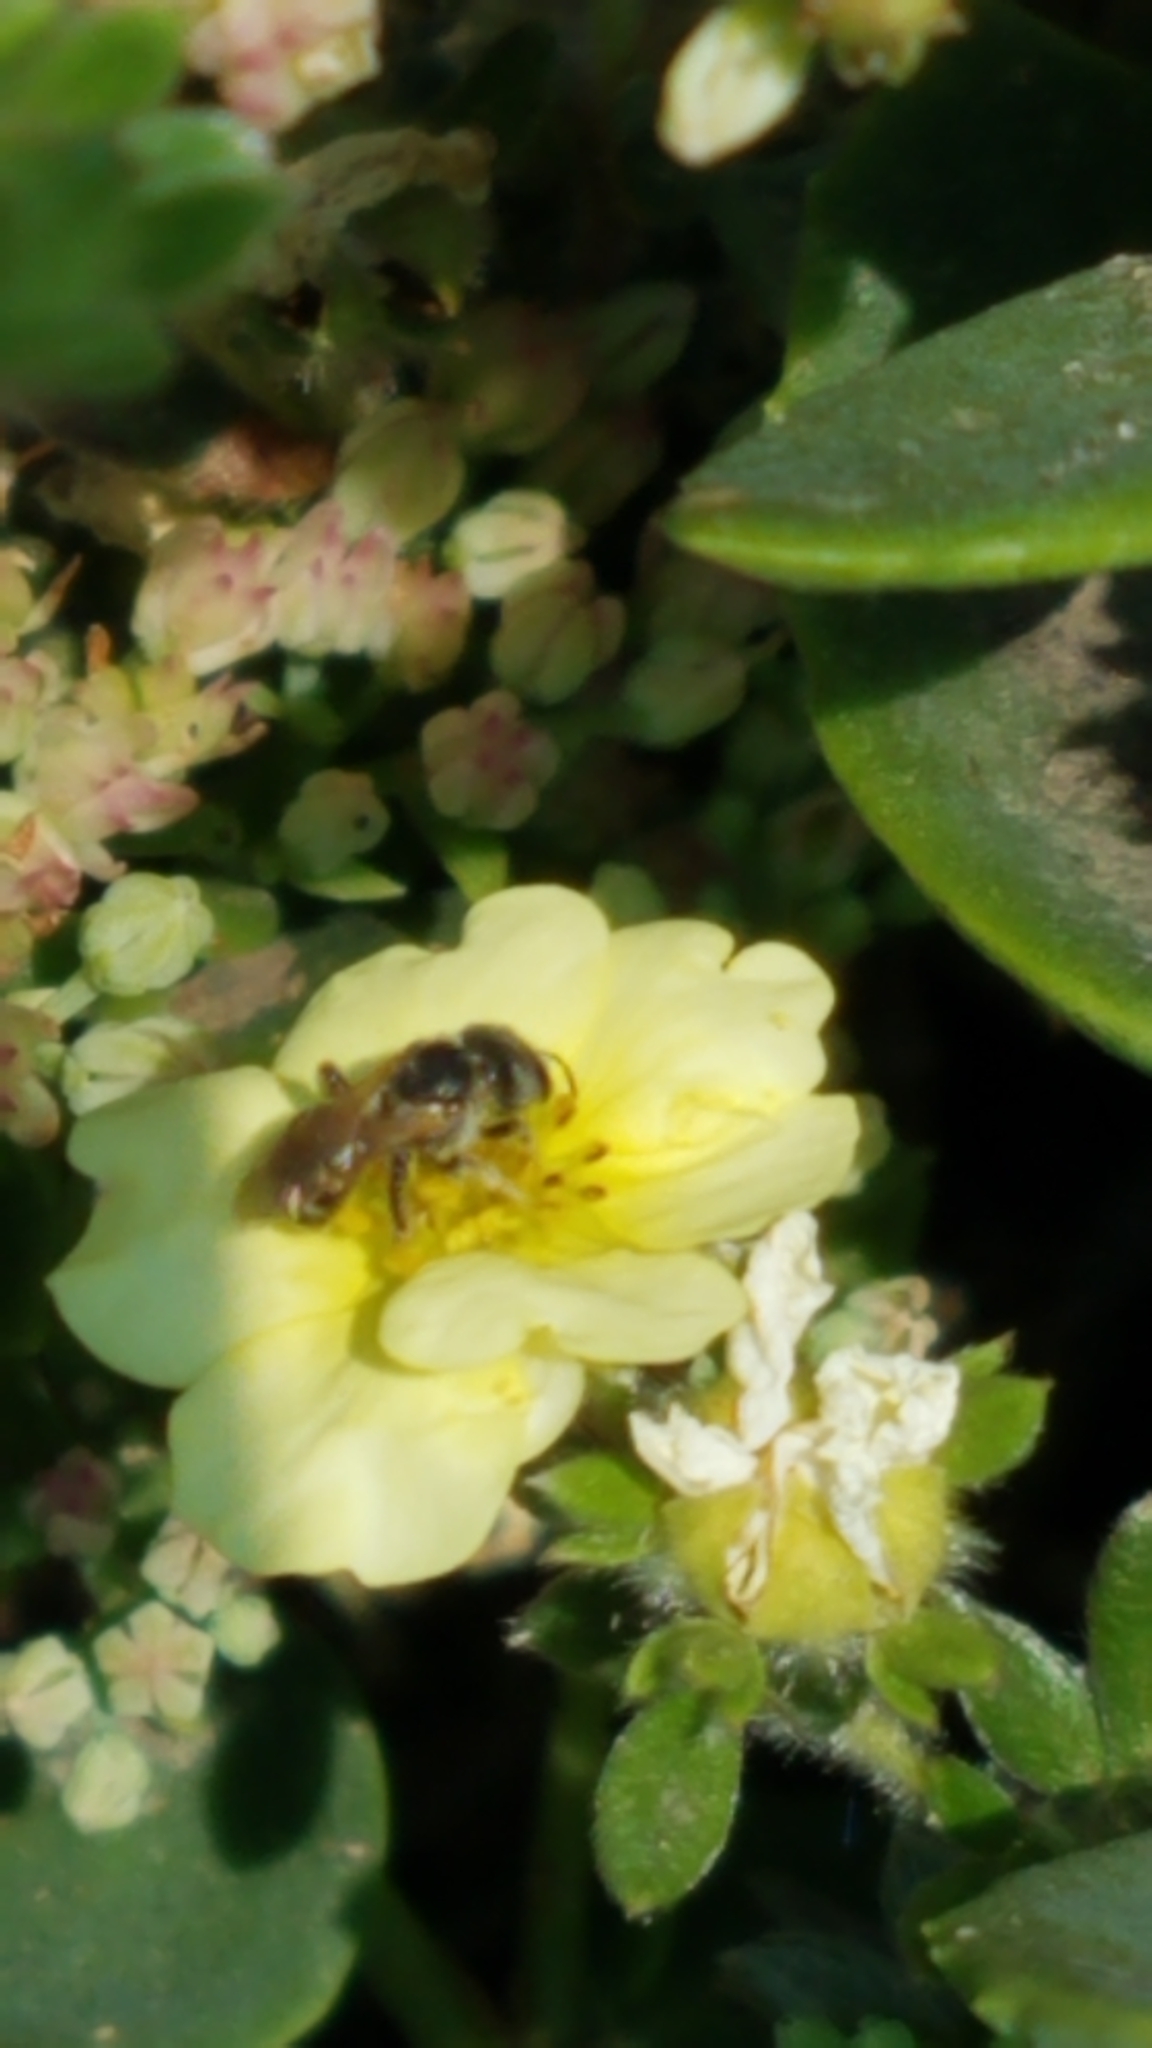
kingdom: Animalia
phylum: Arthropoda
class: Insecta
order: Hymenoptera
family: Halictidae
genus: Halictus
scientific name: Halictus ligatus
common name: Ligated furrow bee
